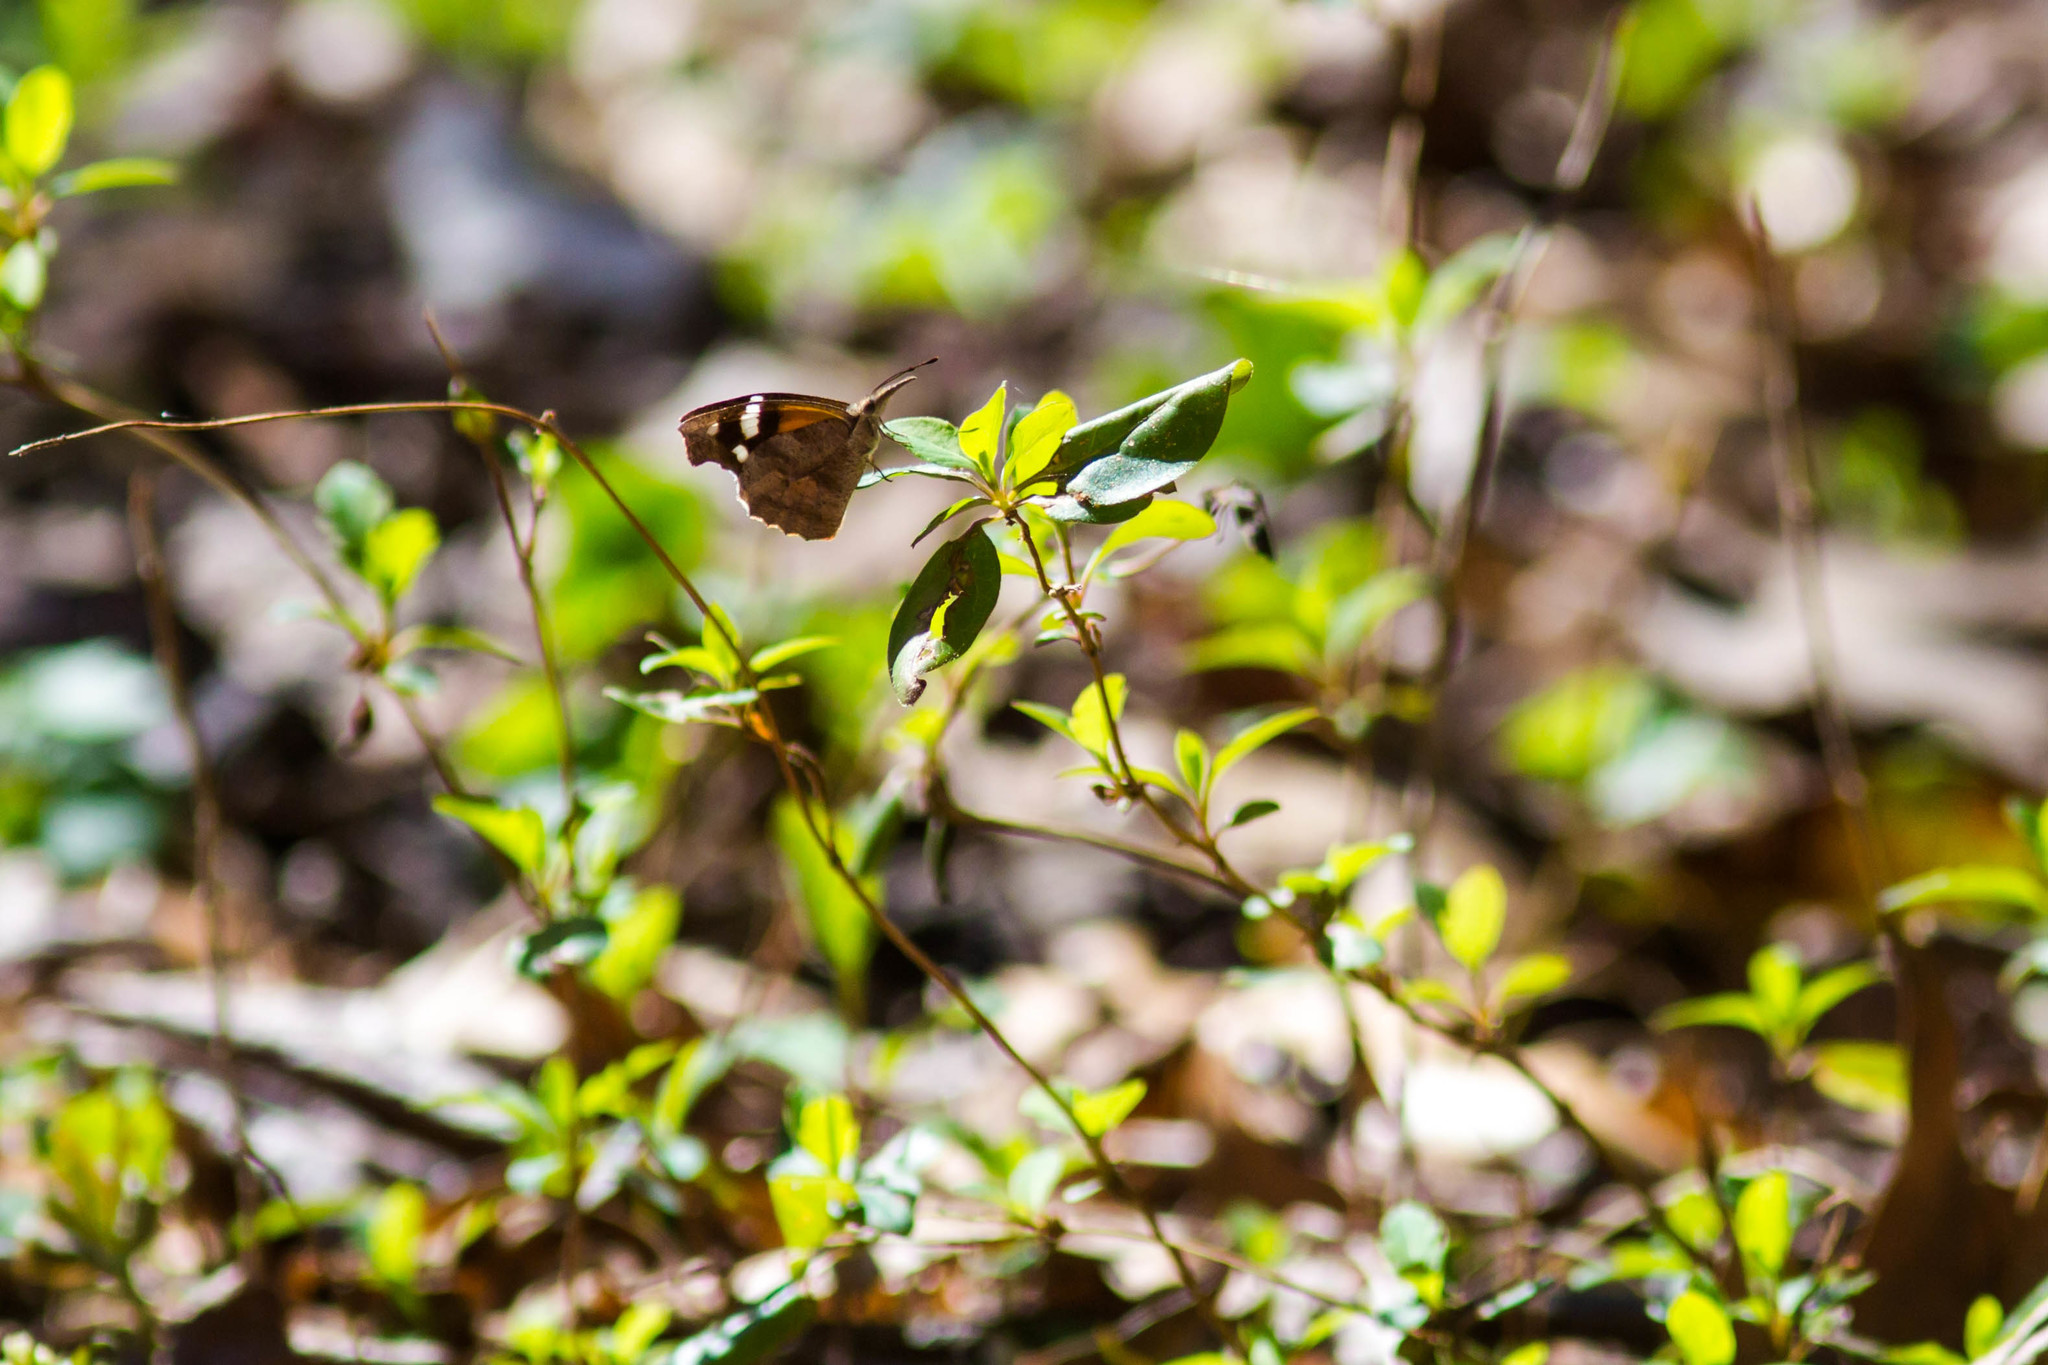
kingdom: Animalia
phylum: Arthropoda
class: Insecta
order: Lepidoptera
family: Nymphalidae
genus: Libytheana
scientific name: Libytheana carinenta
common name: American snout
